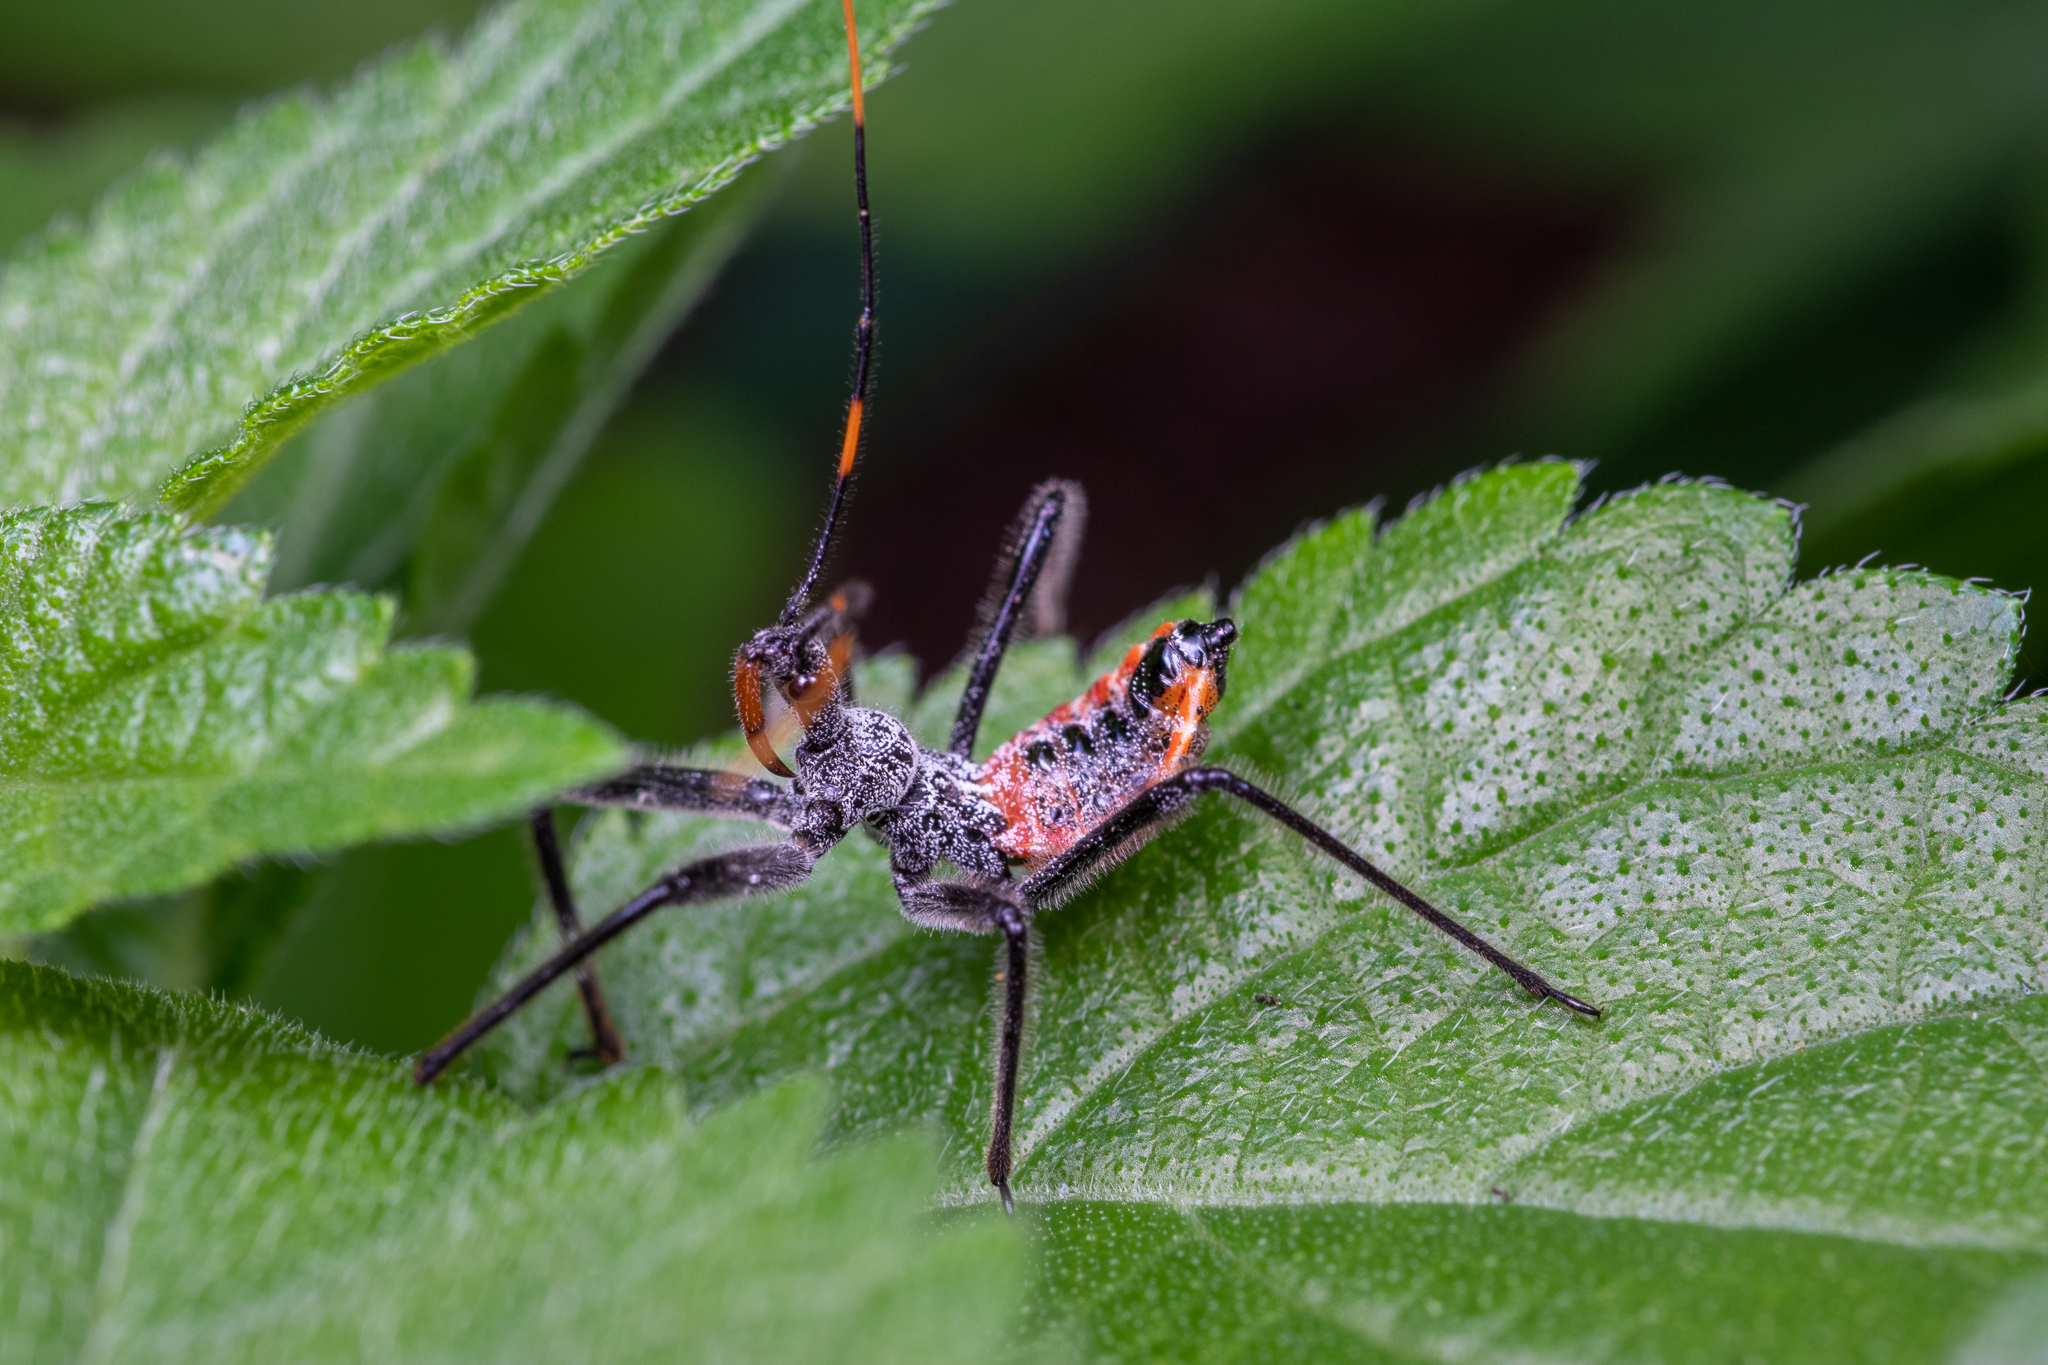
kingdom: Animalia
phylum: Arthropoda
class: Insecta
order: Hemiptera
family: Reduviidae
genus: Arilus
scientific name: Arilus cristatus
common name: North american wheel bug
